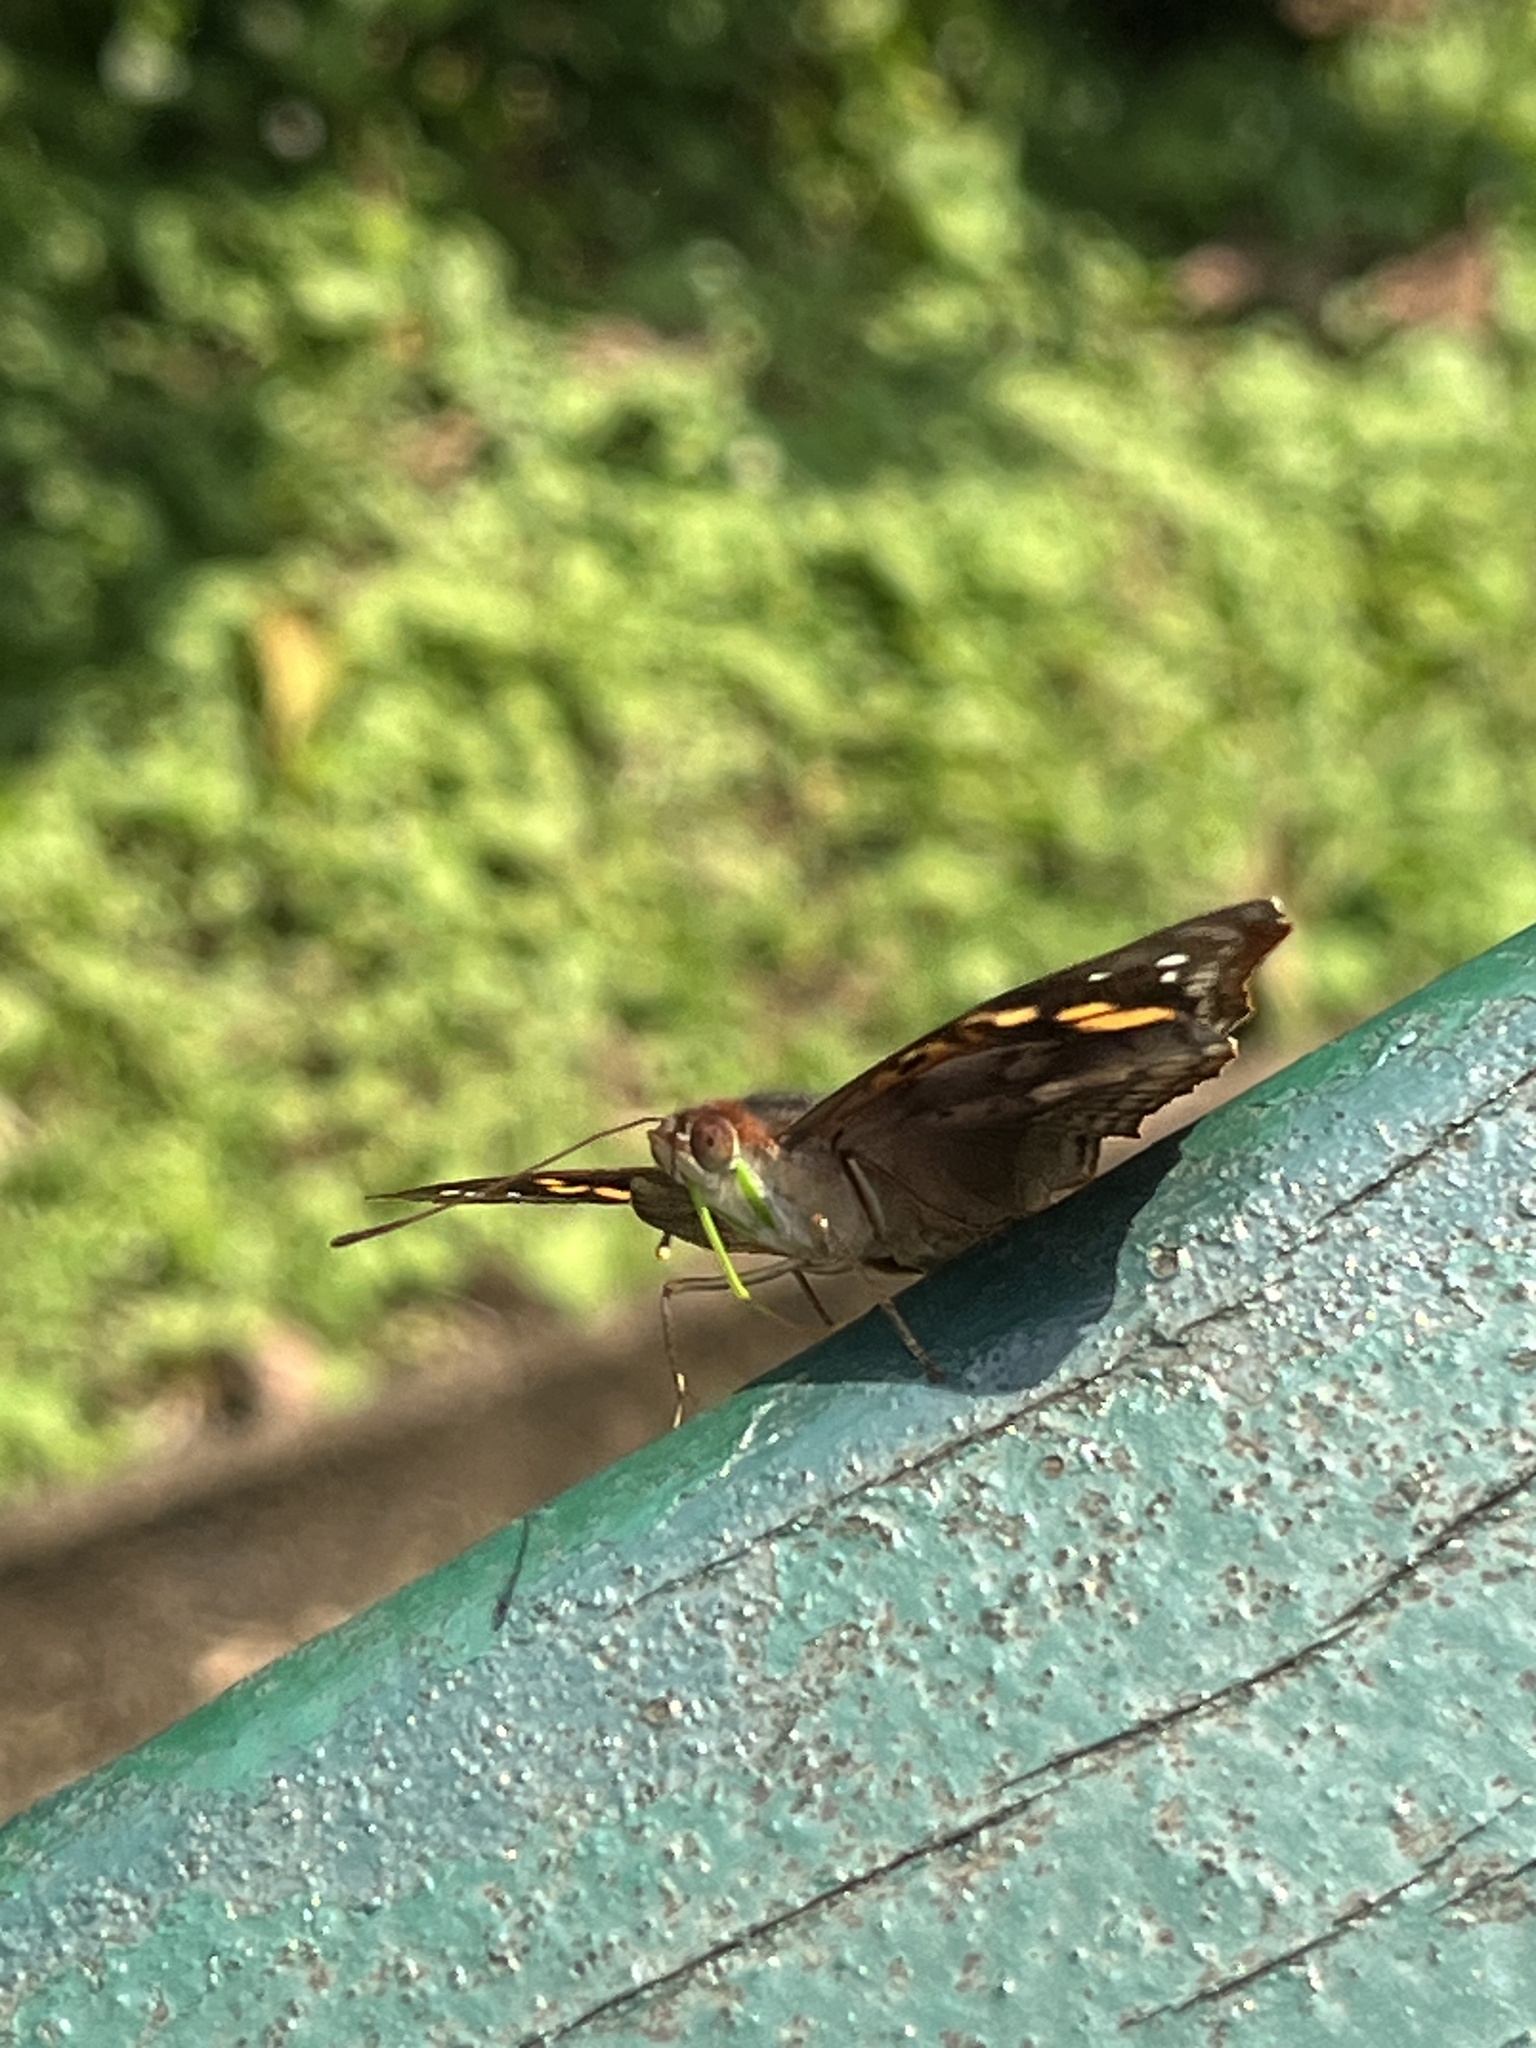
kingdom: Animalia
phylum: Arthropoda
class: Insecta
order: Lepidoptera
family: Nymphalidae
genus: Doxocopa
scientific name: Doxocopa agathina
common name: Agathina emperor
